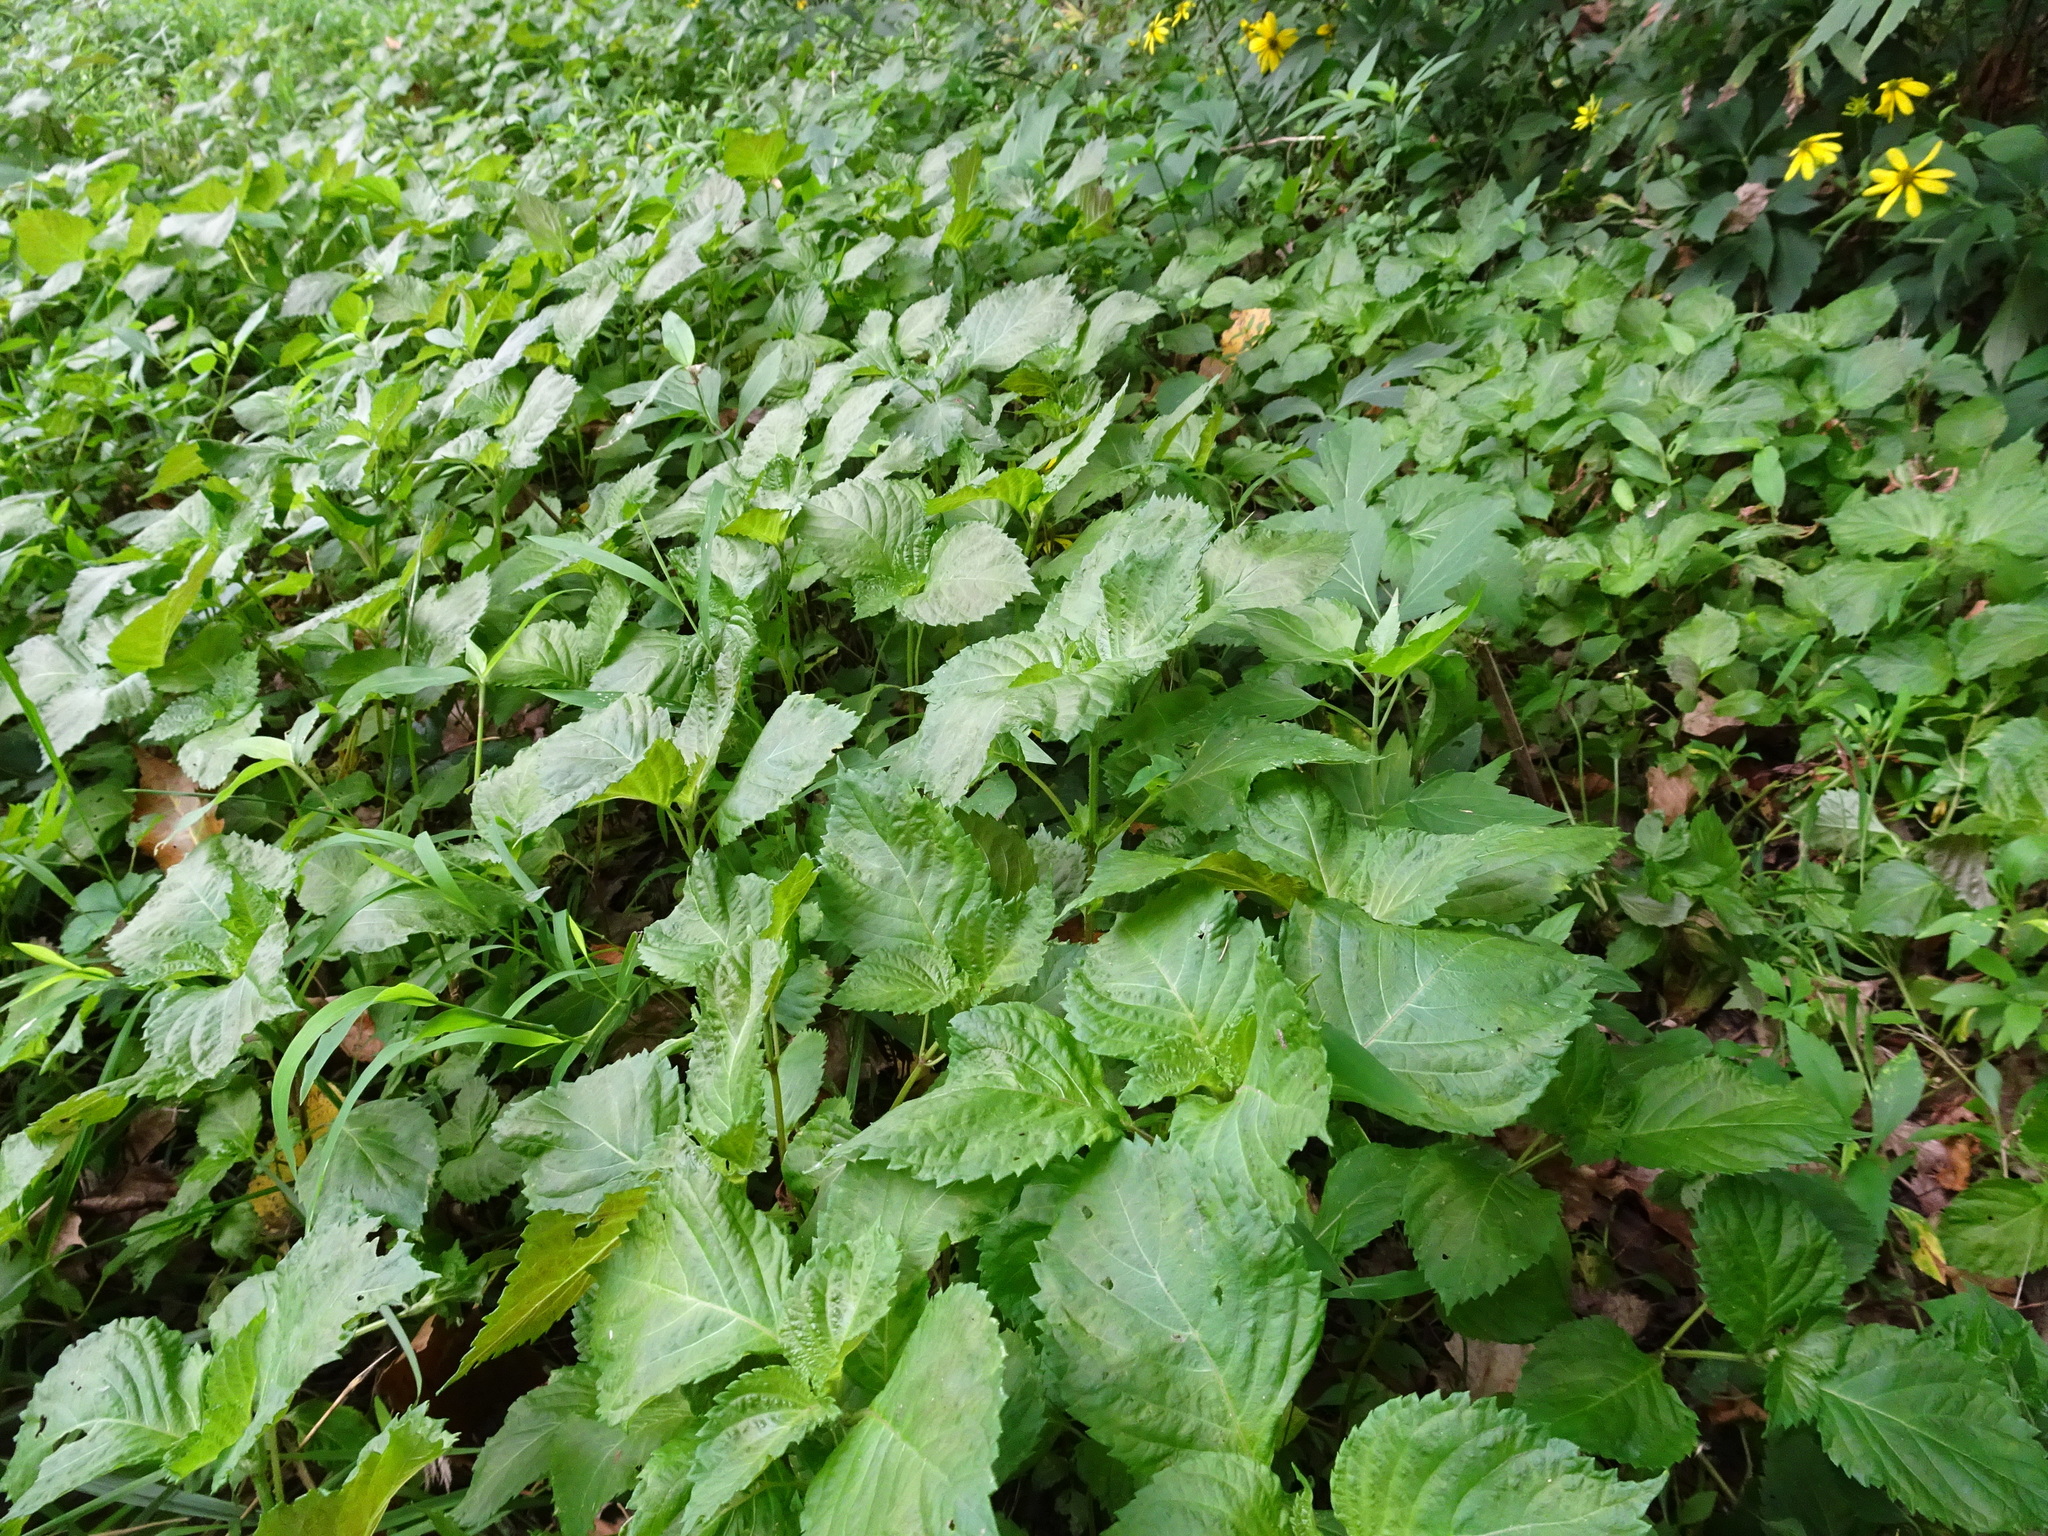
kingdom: Plantae
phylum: Tracheophyta
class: Magnoliopsida
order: Lamiales
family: Lamiaceae
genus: Perilla
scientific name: Perilla frutescens
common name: Perilla
